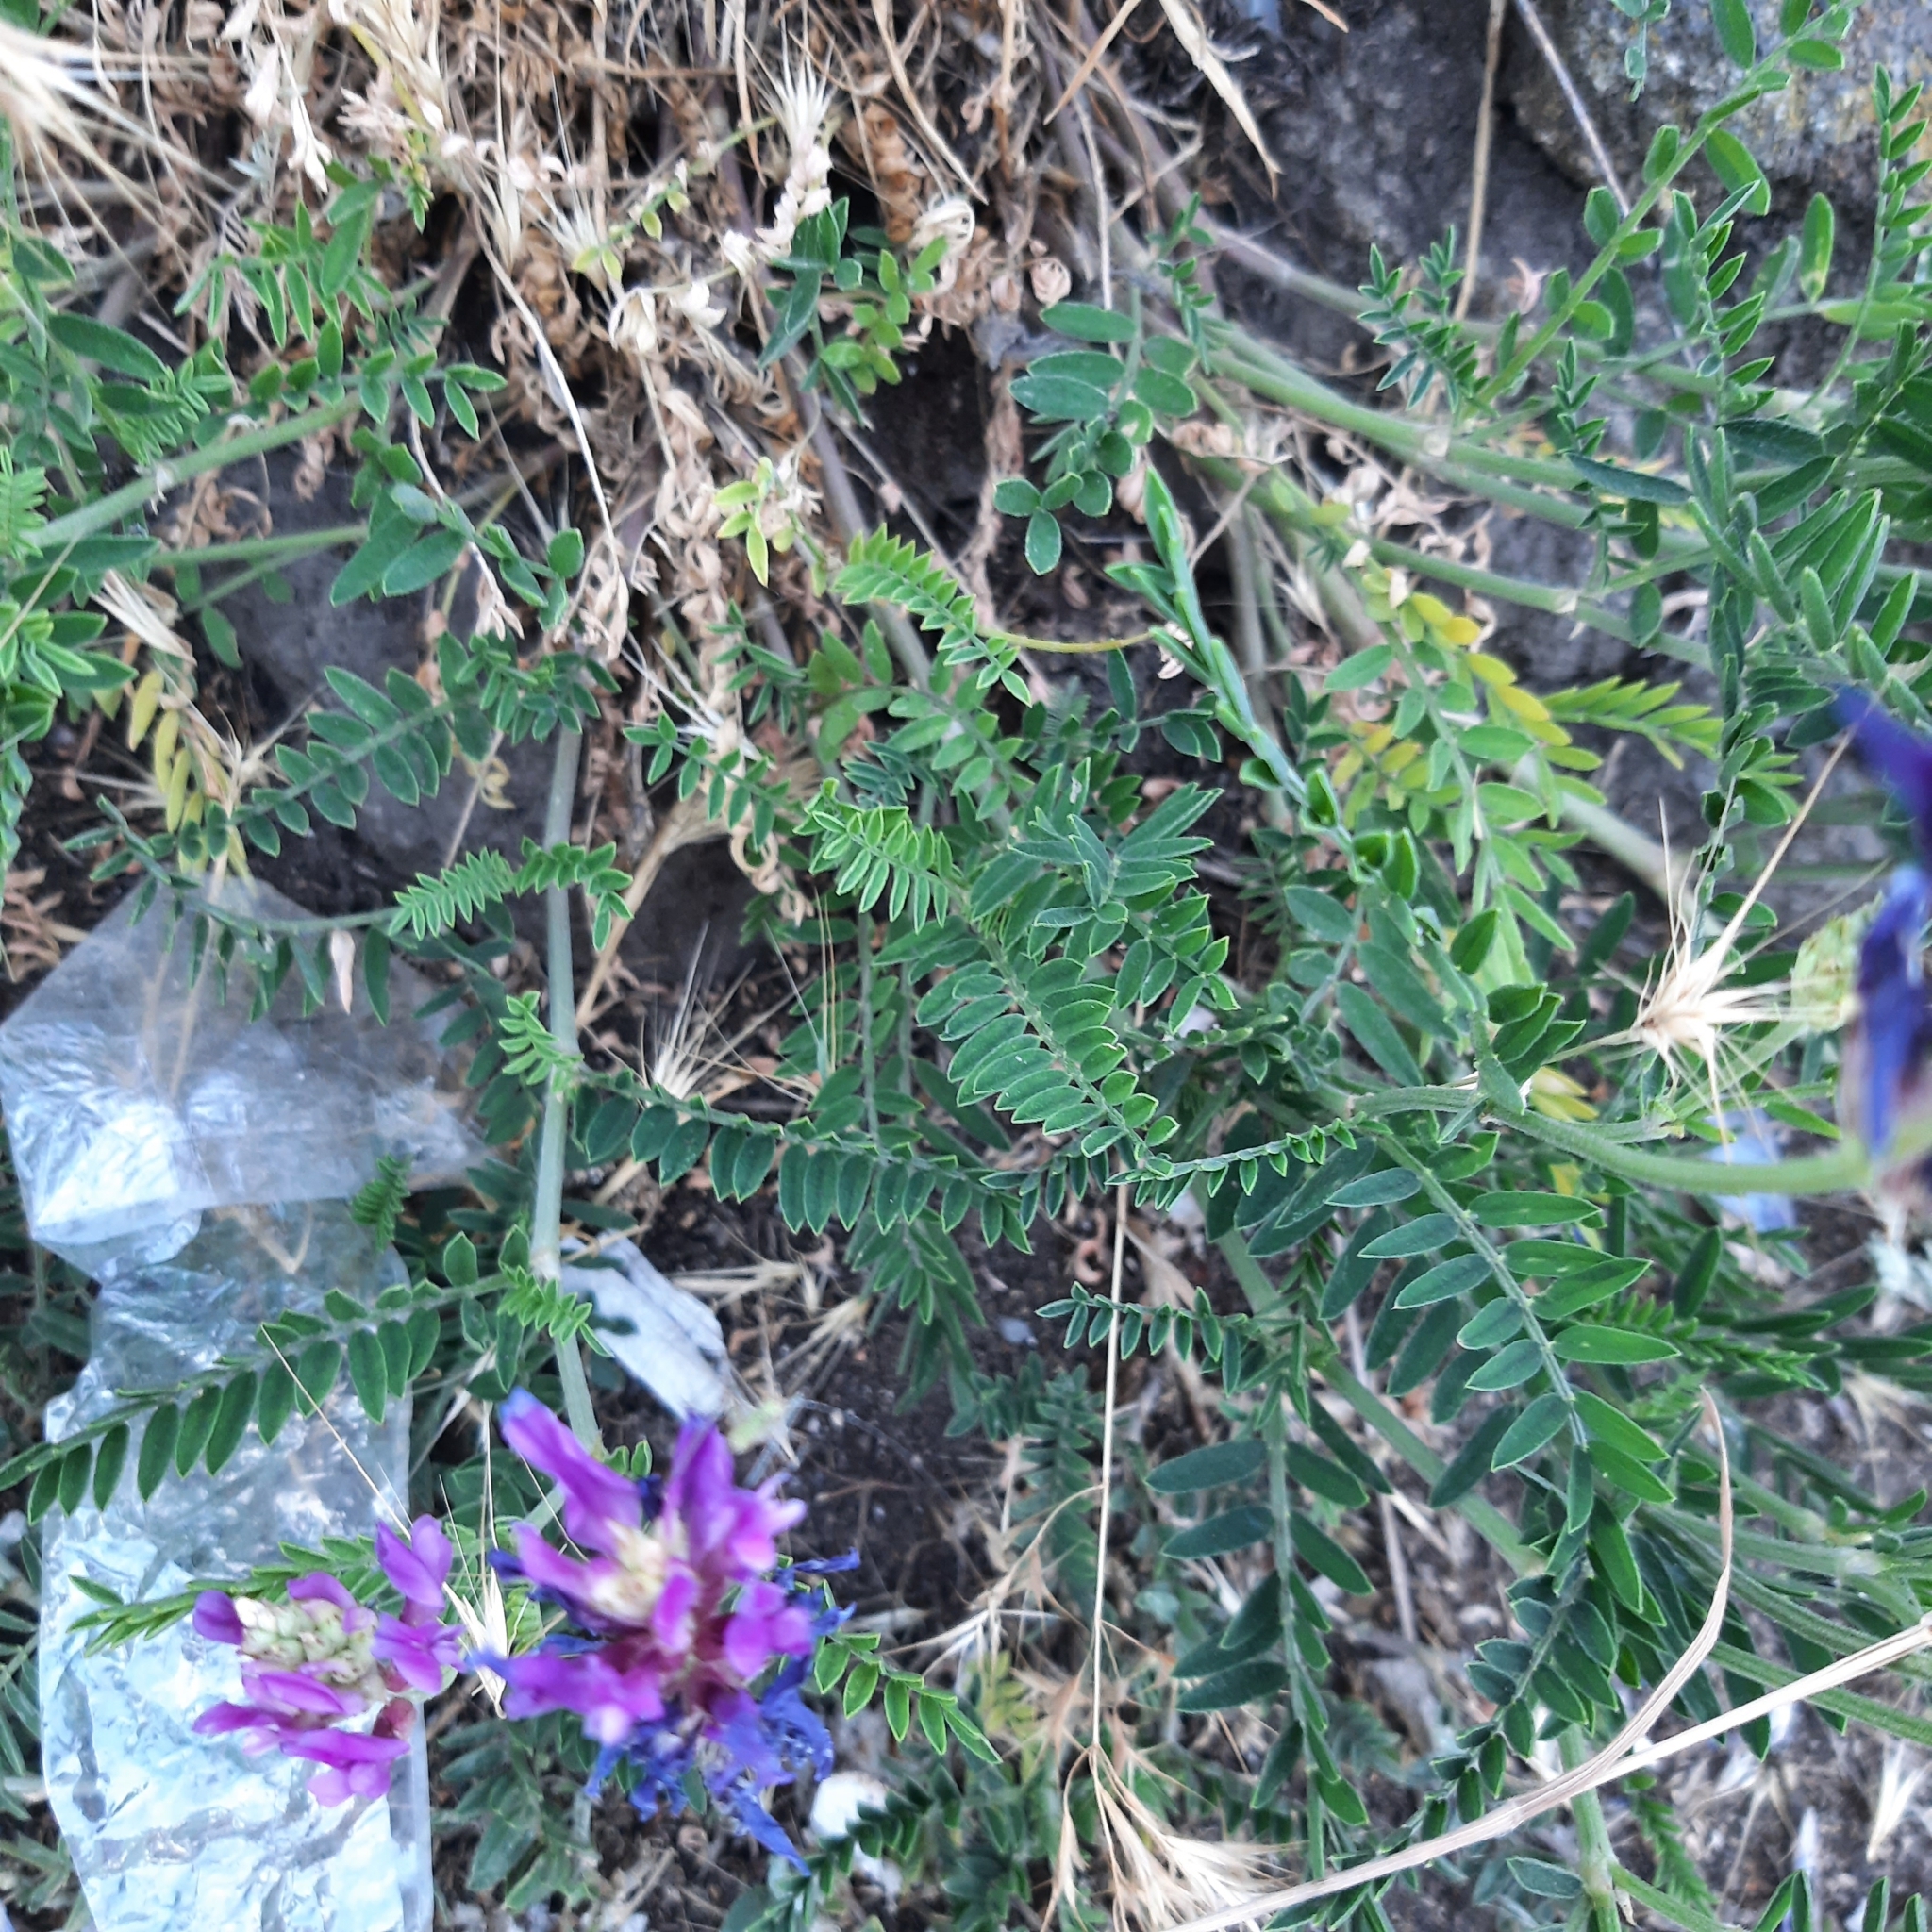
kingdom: Plantae
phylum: Tracheophyta
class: Magnoliopsida
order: Fabales
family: Fabaceae
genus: Astragalus
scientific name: Astragalus onobrychis
